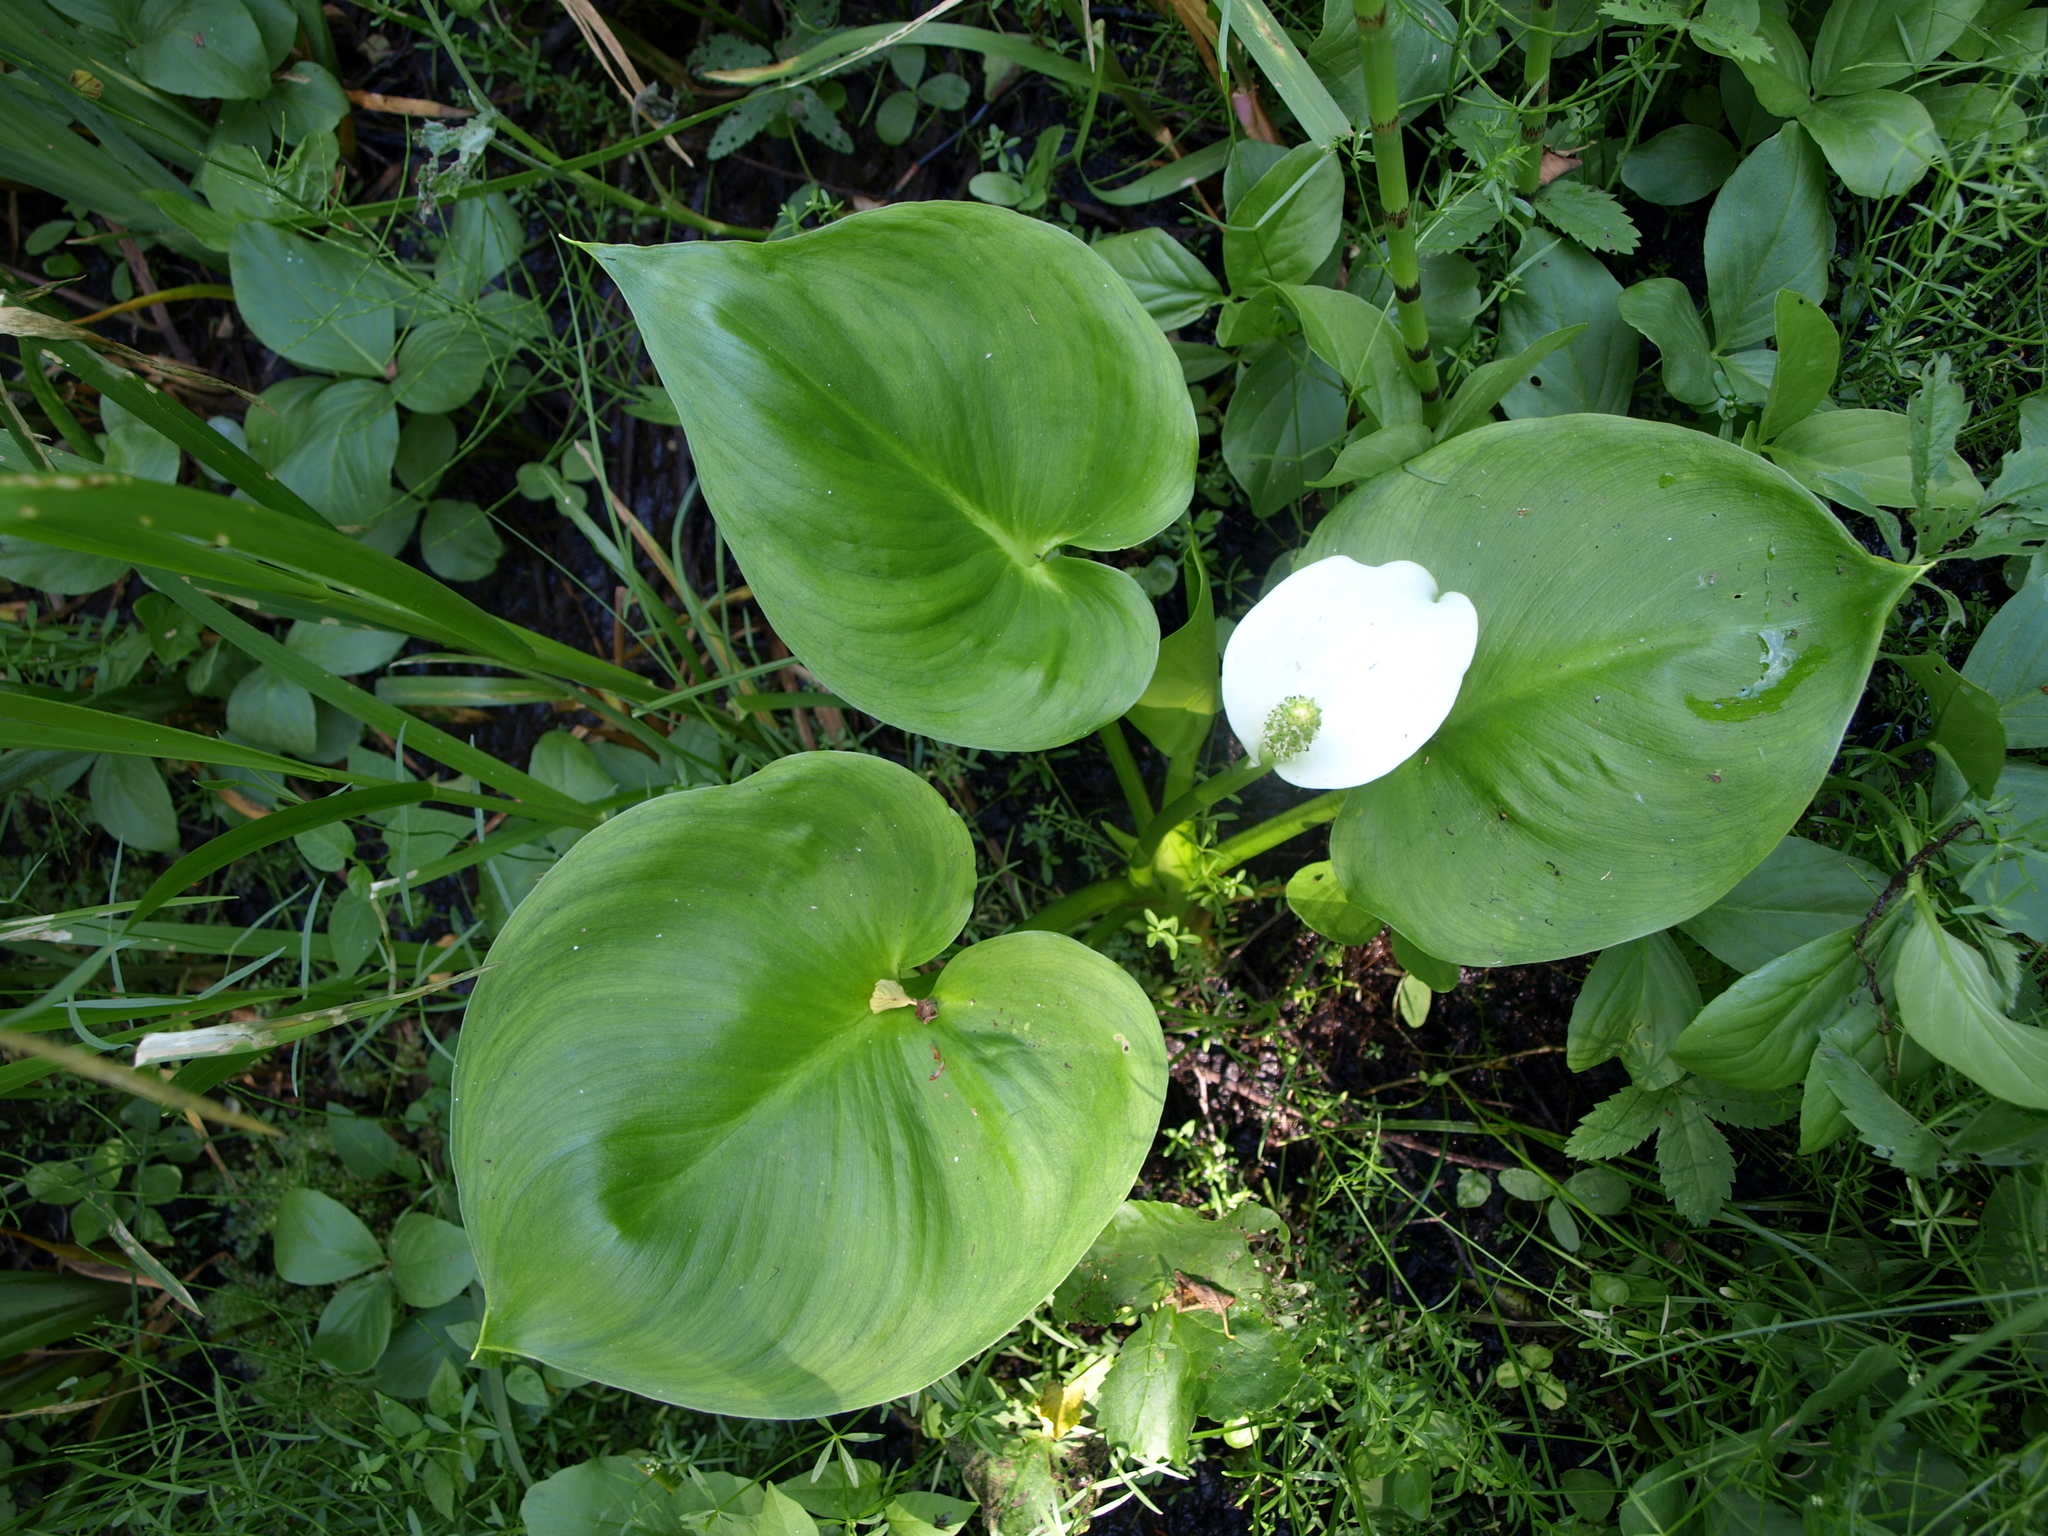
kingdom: Plantae
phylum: Tracheophyta
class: Liliopsida
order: Alismatales
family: Araceae
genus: Calla
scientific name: Calla palustris
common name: Bog arum
